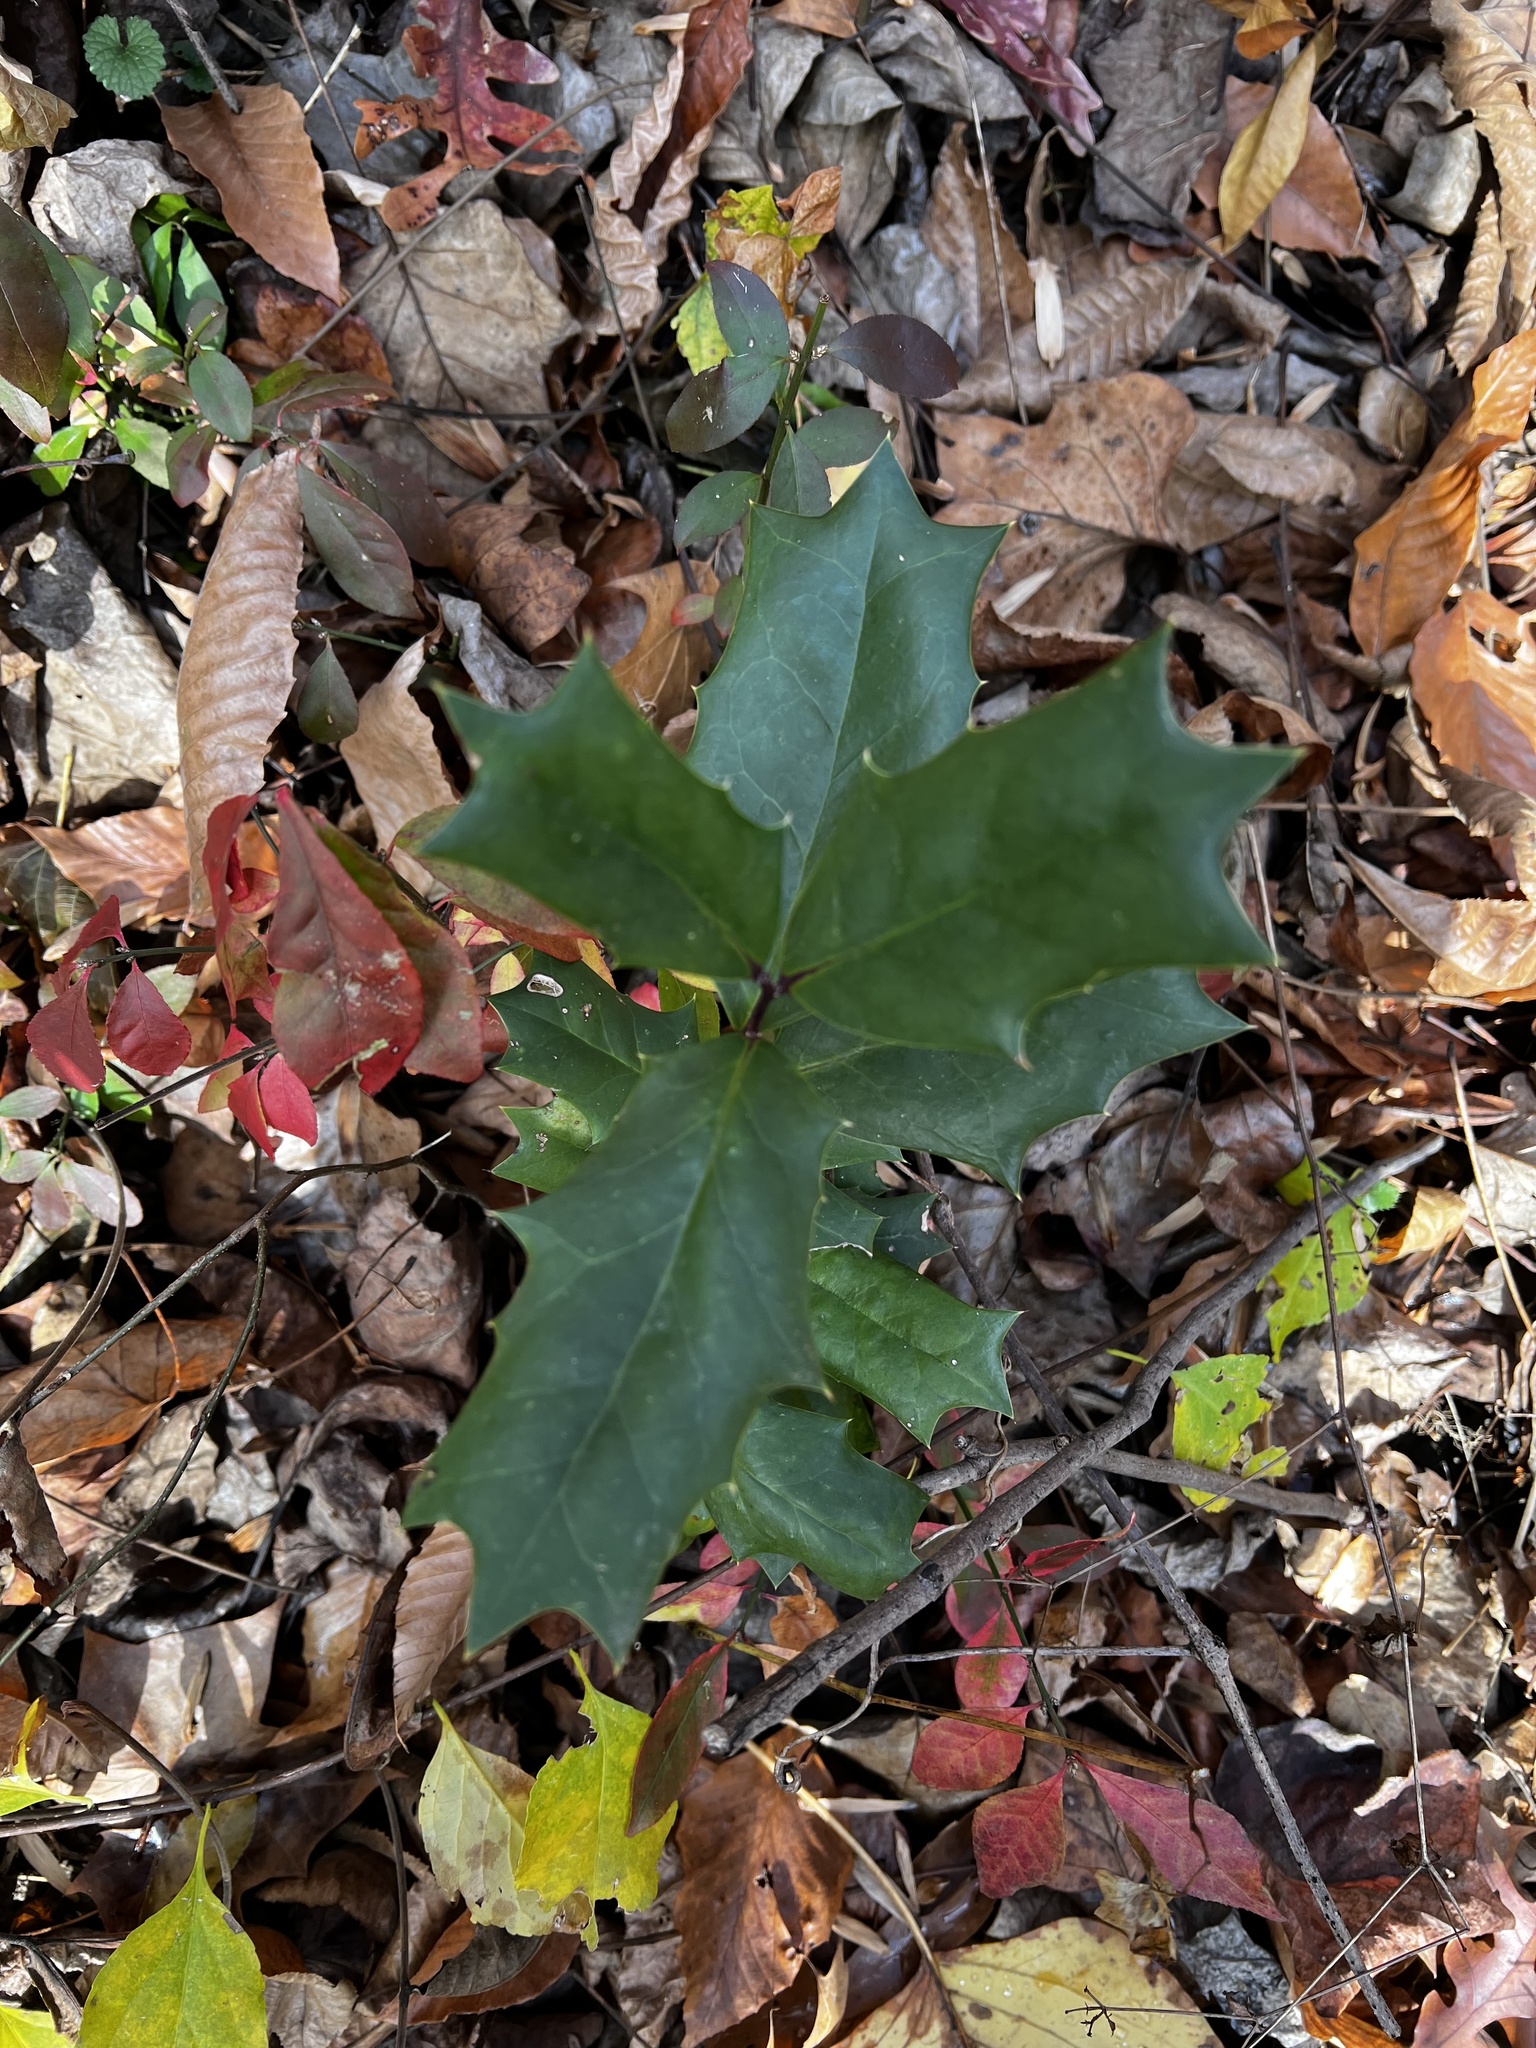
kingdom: Plantae
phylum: Tracheophyta
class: Magnoliopsida
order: Aquifoliales
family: Aquifoliaceae
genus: Ilex
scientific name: Ilex cornuta
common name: Chinese holly
